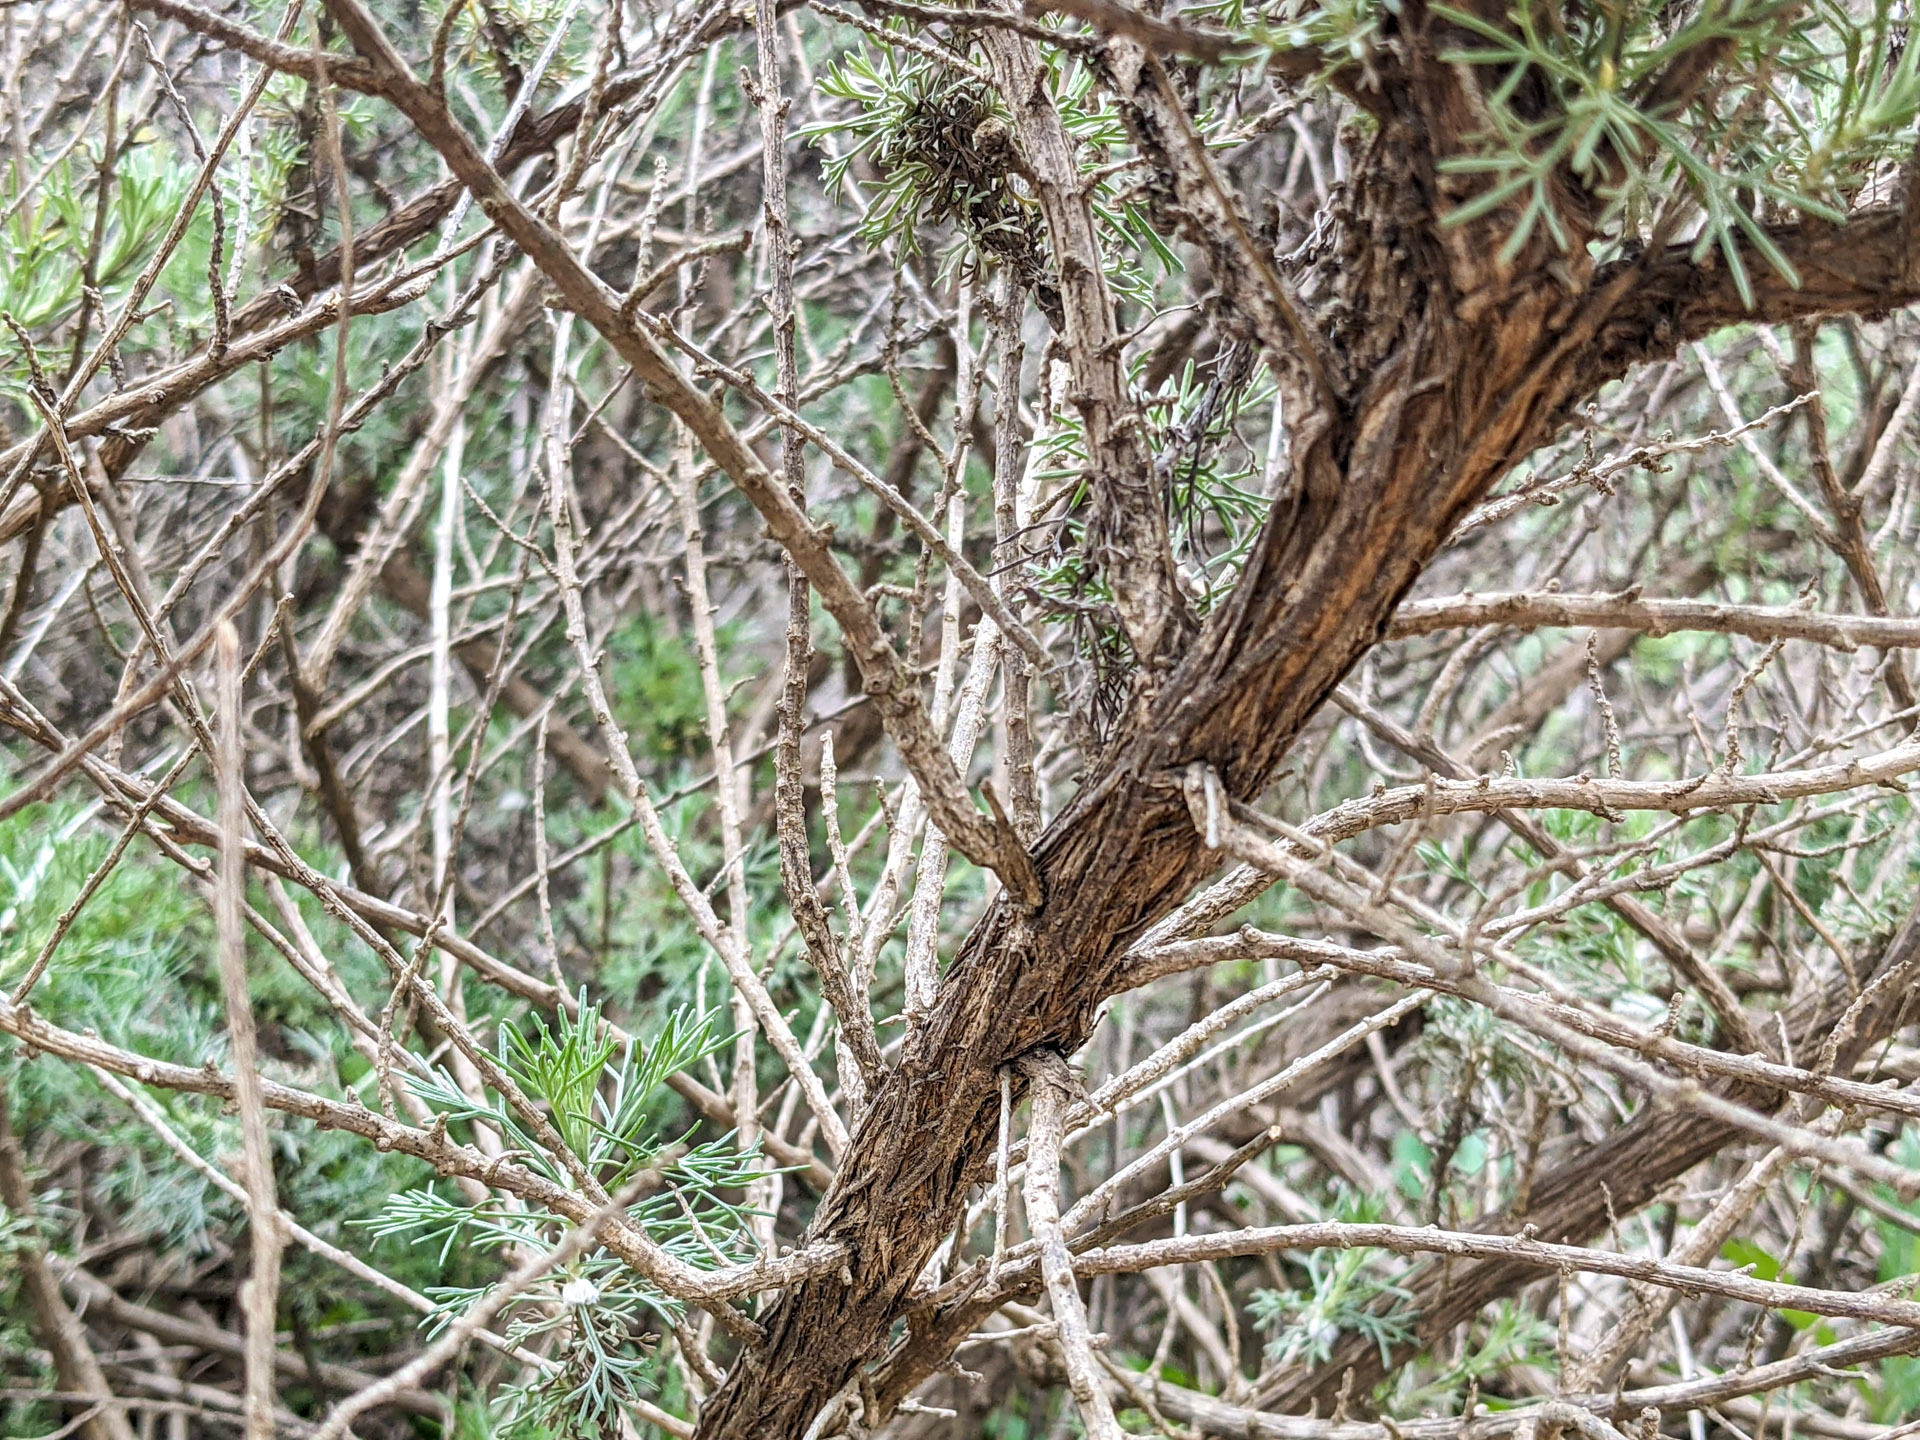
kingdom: Plantae
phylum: Tracheophyta
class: Magnoliopsida
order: Asterales
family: Asteraceae
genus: Artemisia
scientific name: Artemisia californica
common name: California sagebrush
